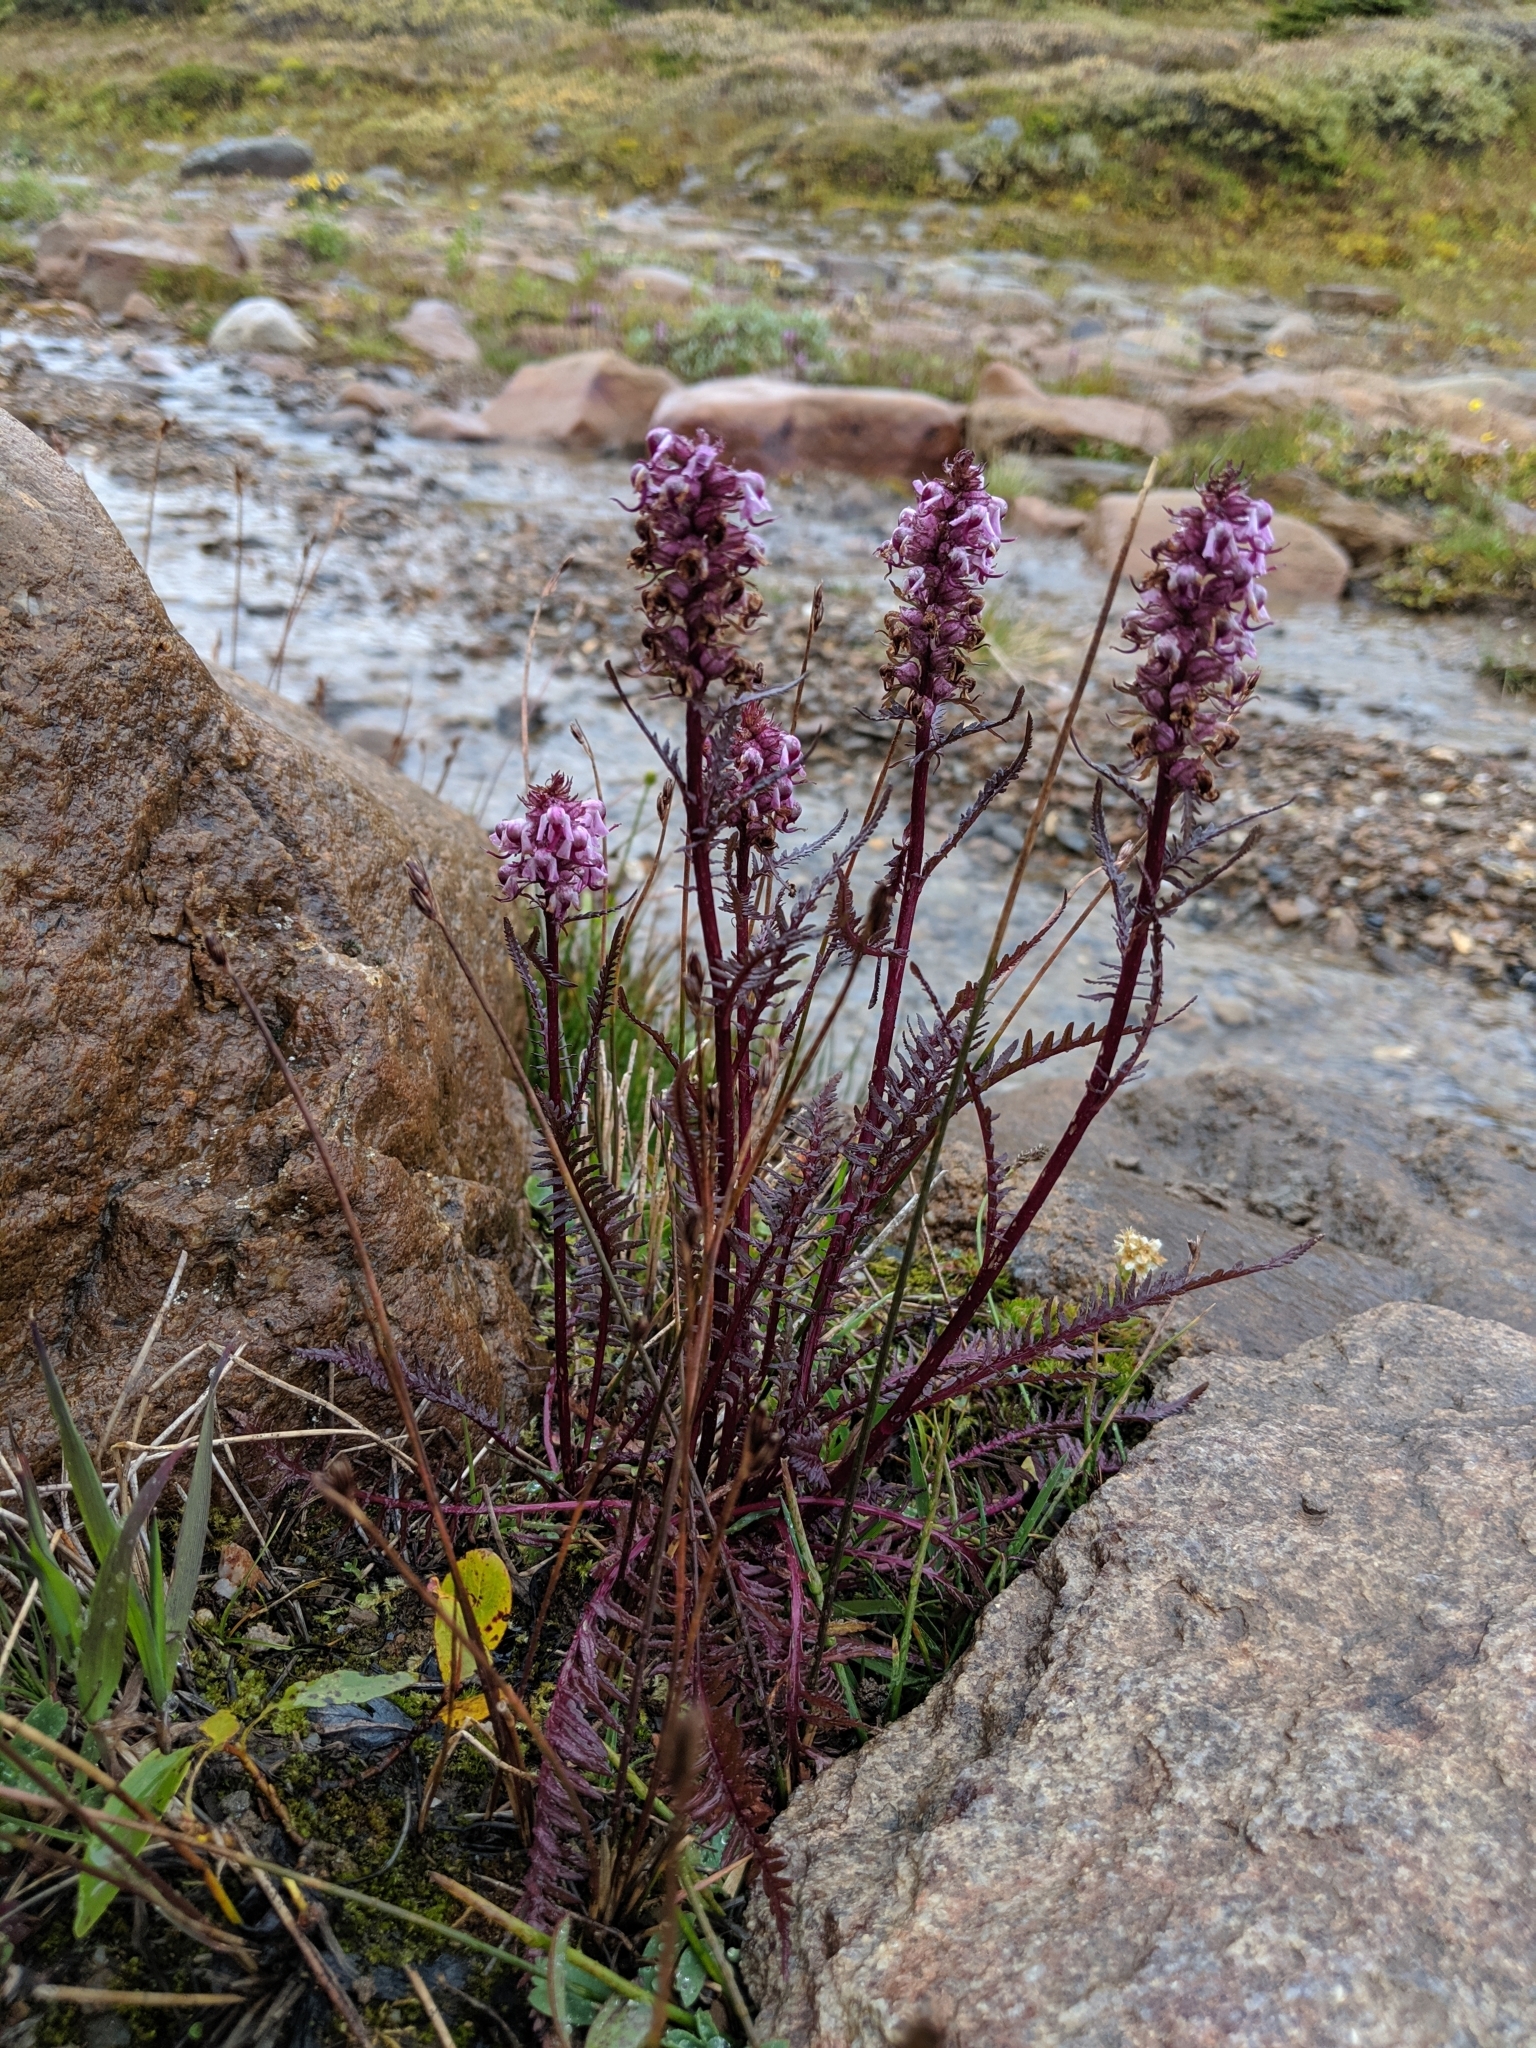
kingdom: Plantae
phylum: Tracheophyta
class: Magnoliopsida
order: Lamiales
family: Orobanchaceae
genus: Pedicularis
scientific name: Pedicularis groenlandica
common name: Elephant's-head
